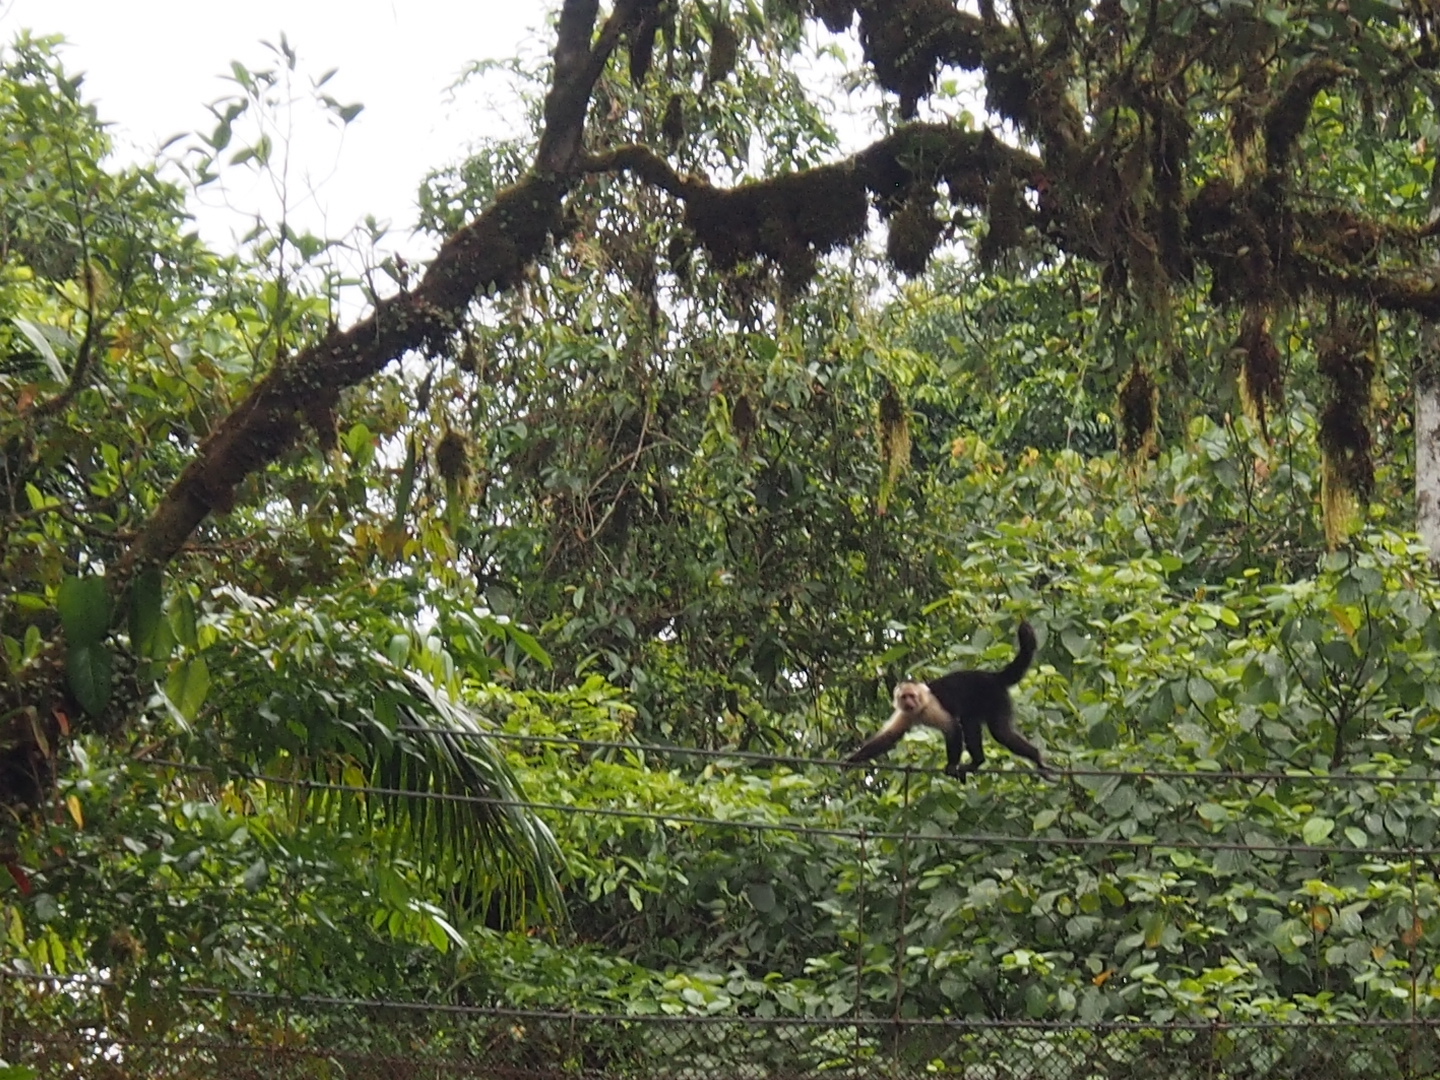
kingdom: Animalia
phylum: Chordata
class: Mammalia
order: Primates
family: Cebidae
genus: Cebus
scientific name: Cebus imitator
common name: Panamanian white-faced capuchin
